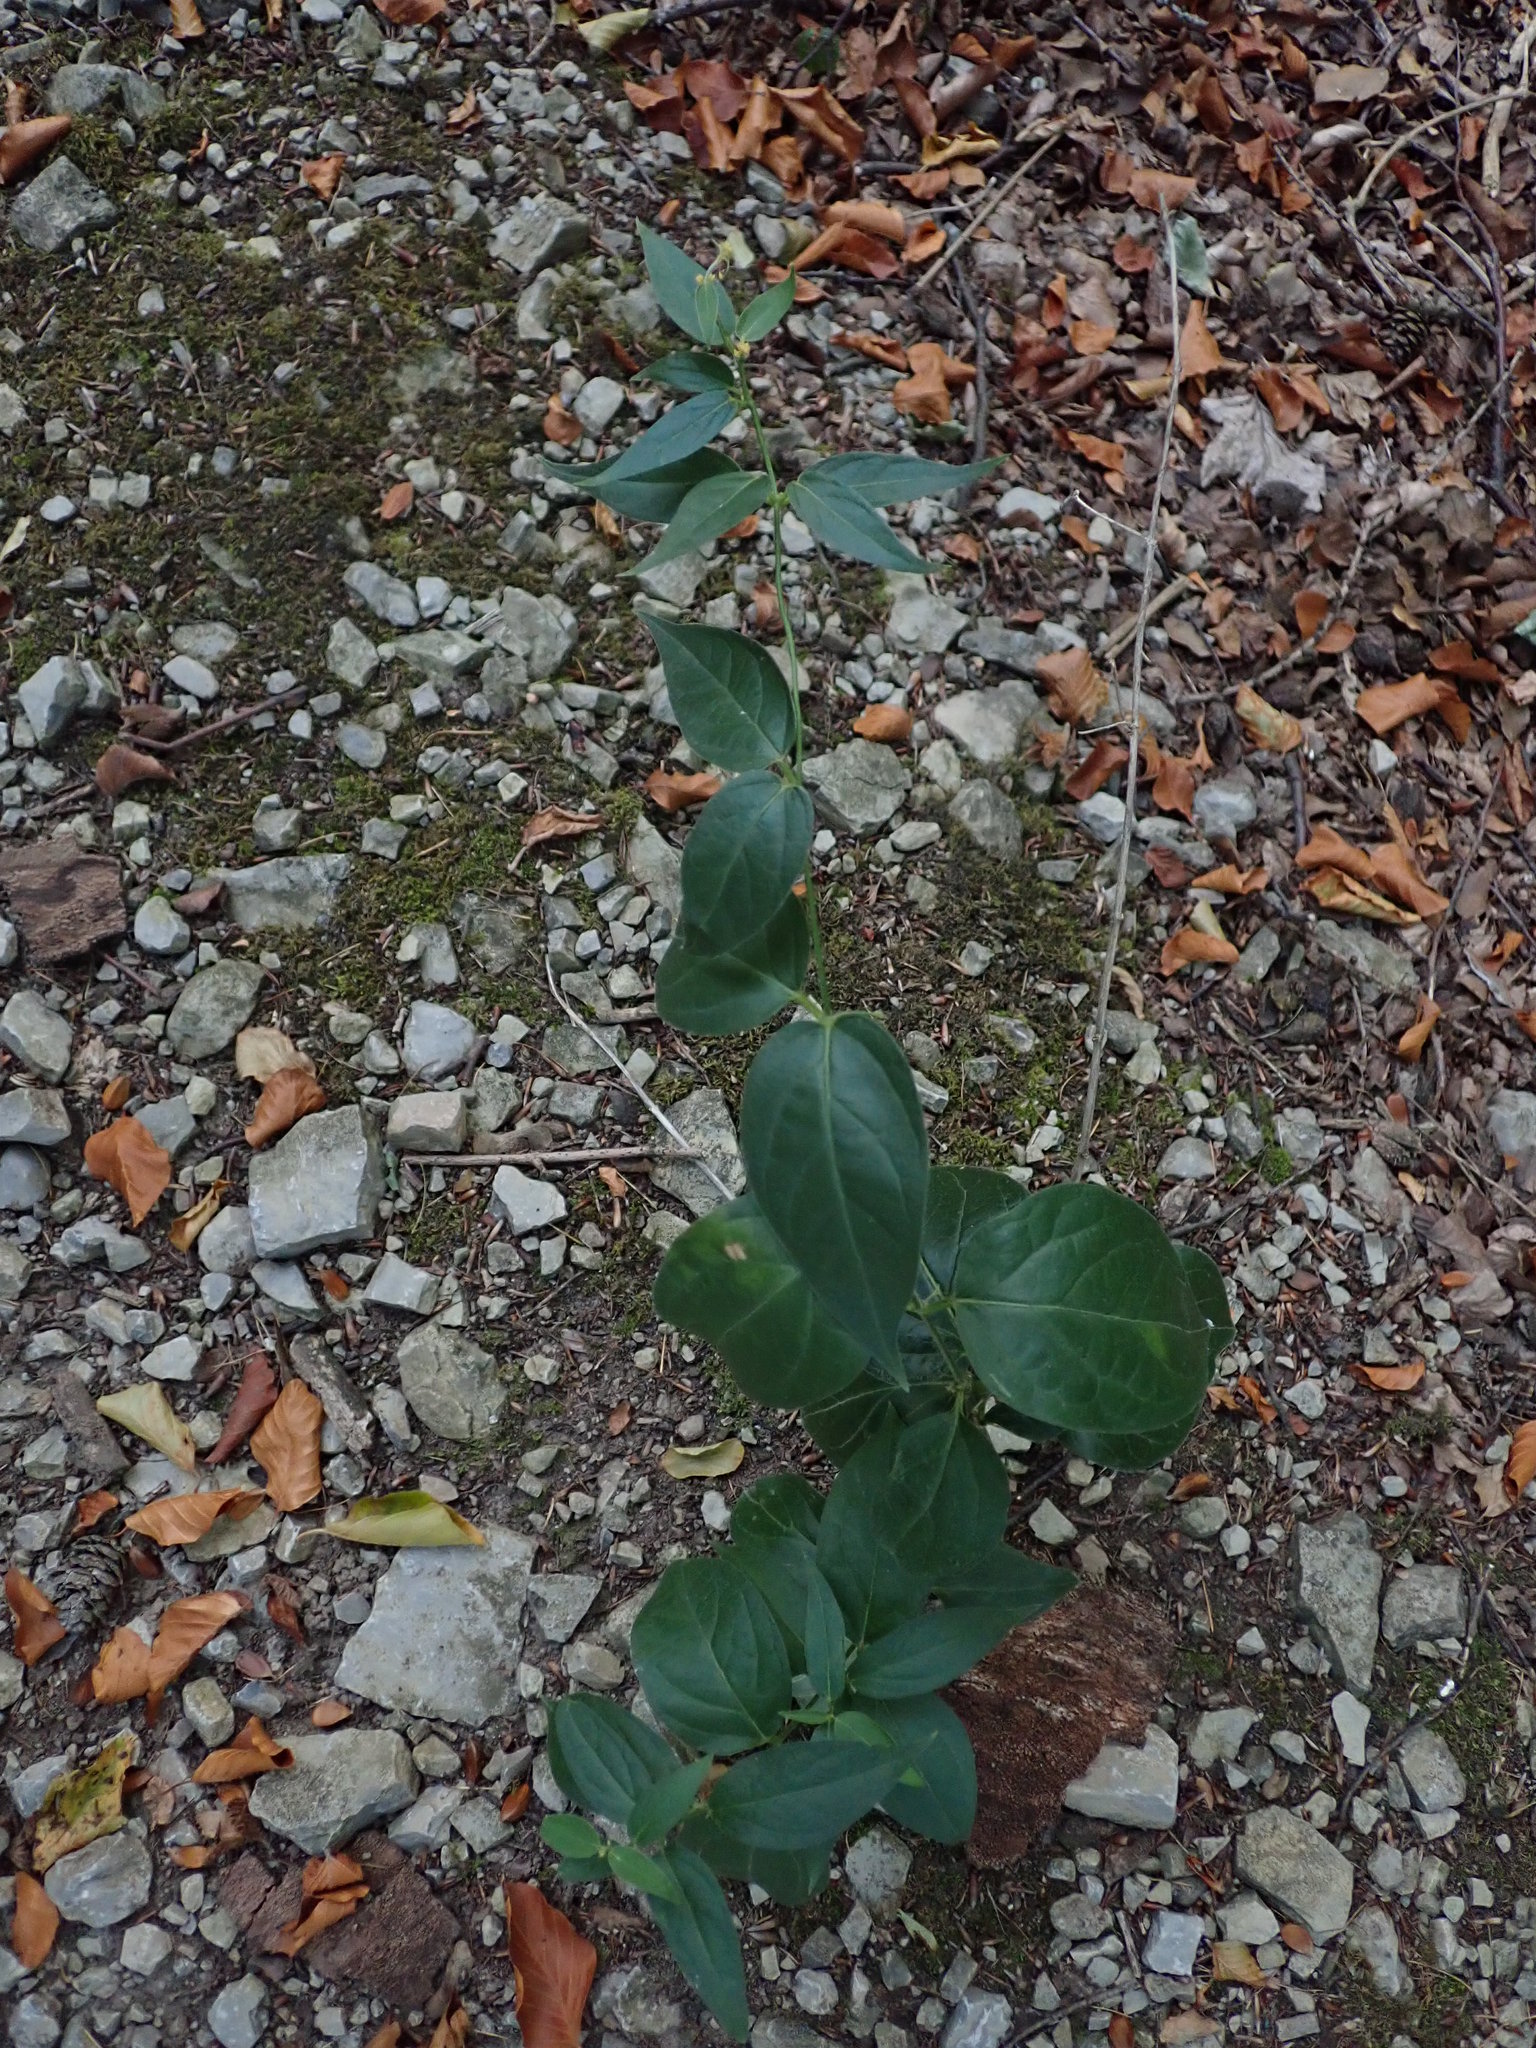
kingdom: Plantae
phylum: Tracheophyta
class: Magnoliopsida
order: Gentianales
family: Apocynaceae
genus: Vincetoxicum
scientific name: Vincetoxicum hirundinaria
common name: White swallowwort
